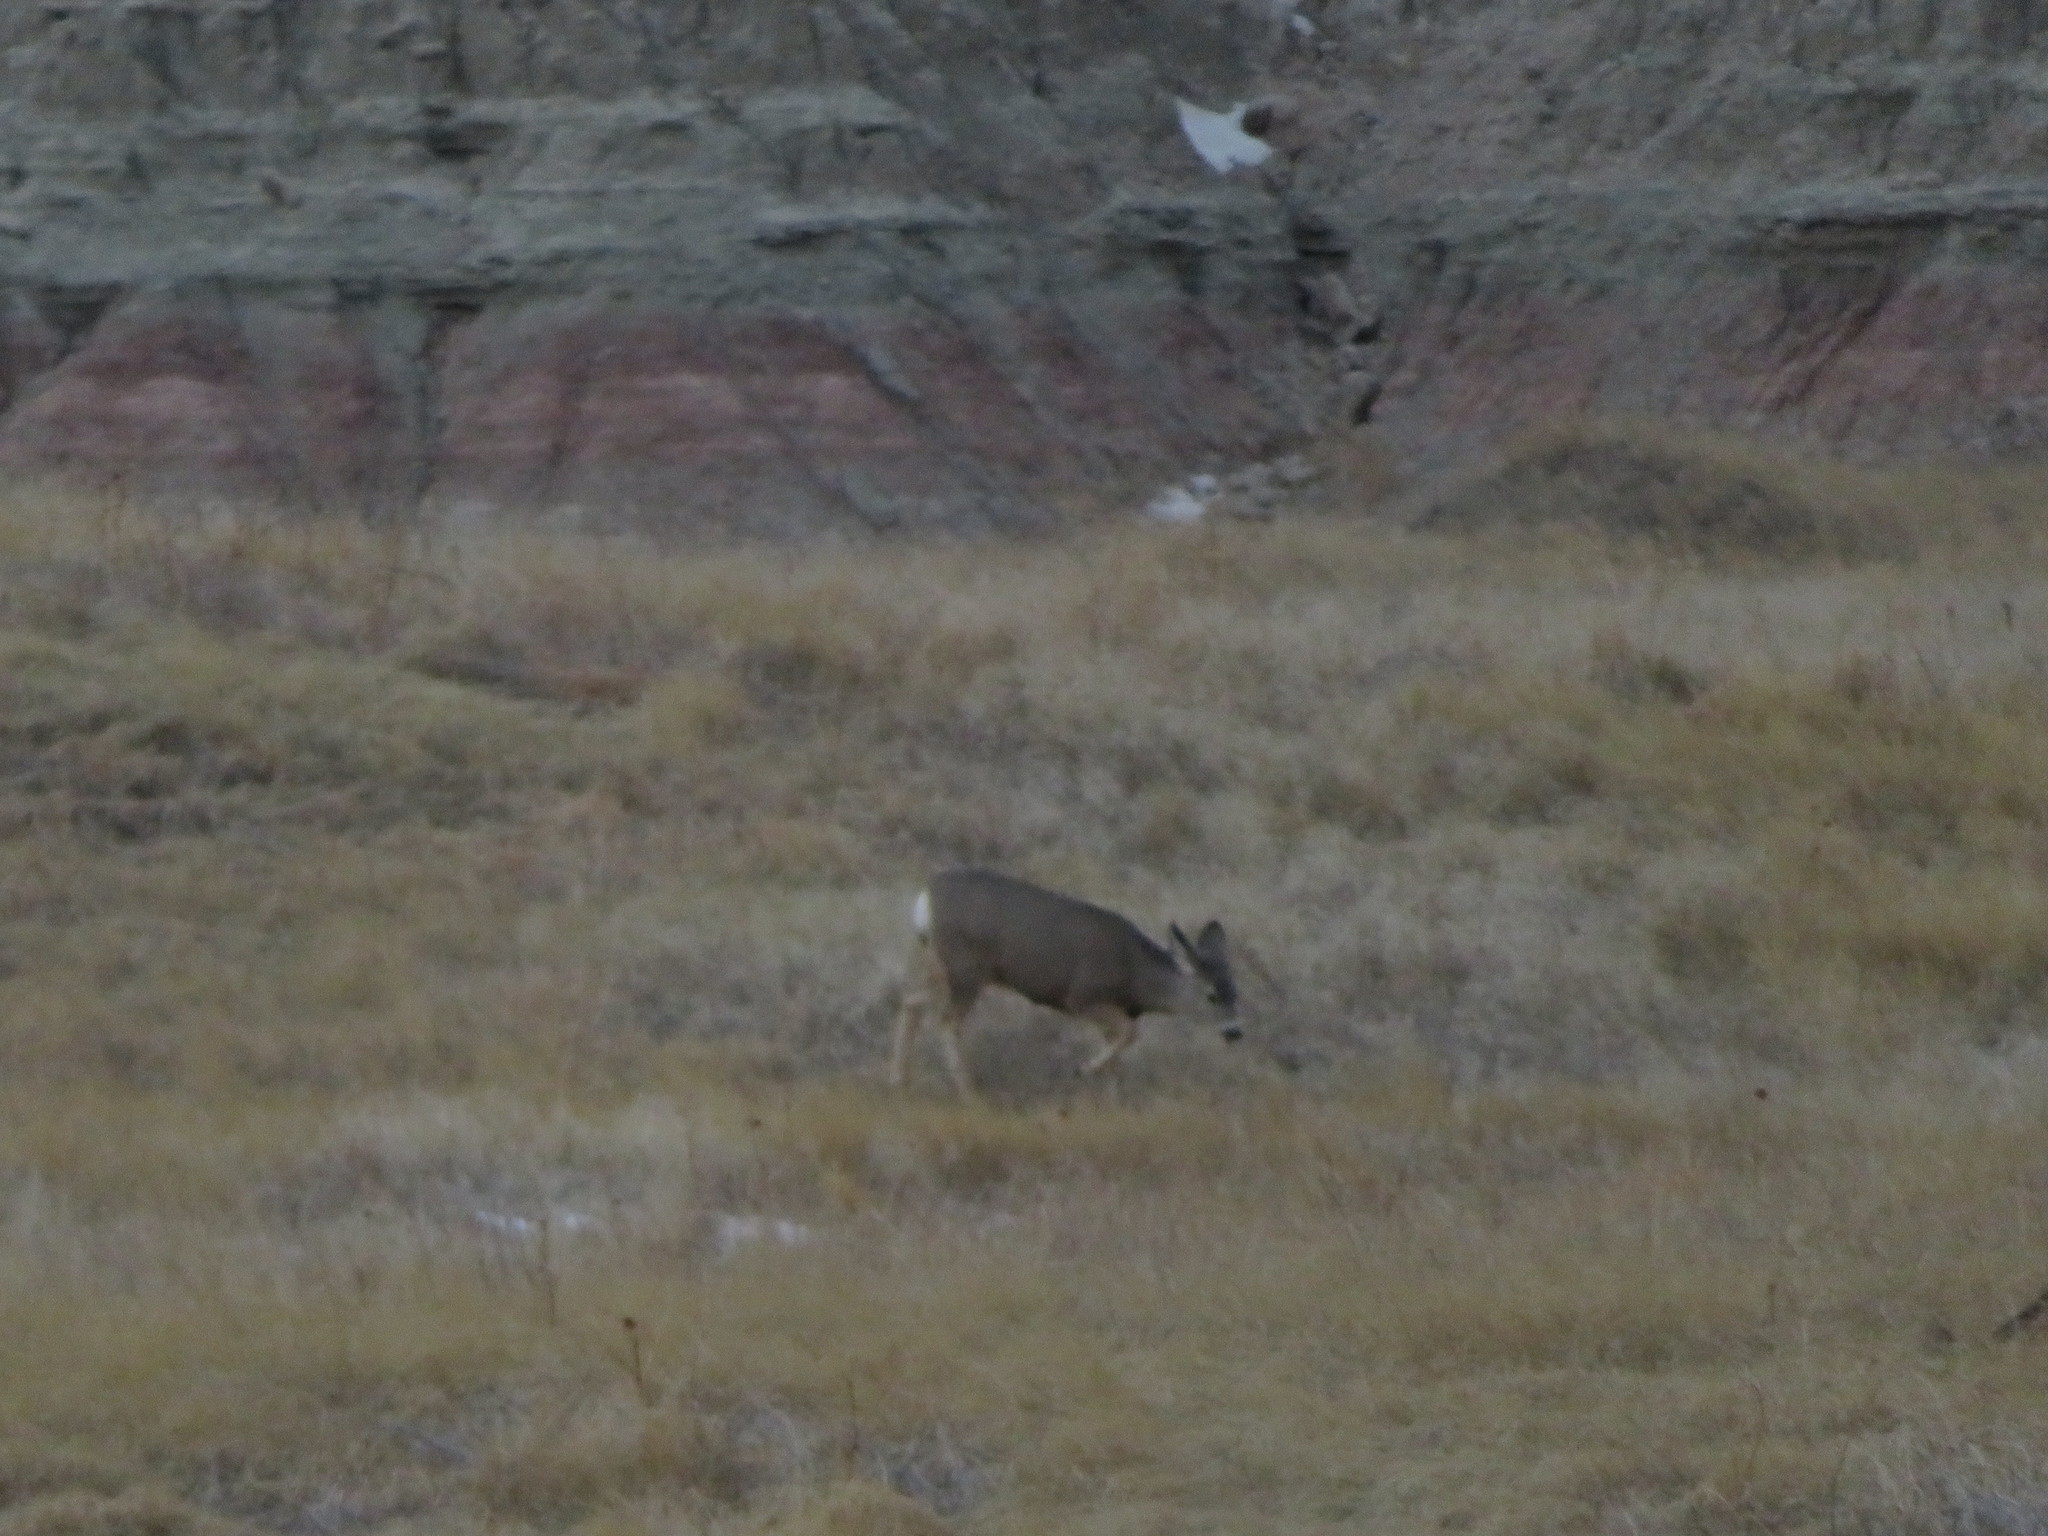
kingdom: Animalia
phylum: Chordata
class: Mammalia
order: Artiodactyla
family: Cervidae
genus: Odocoileus
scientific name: Odocoileus hemionus
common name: Mule deer
